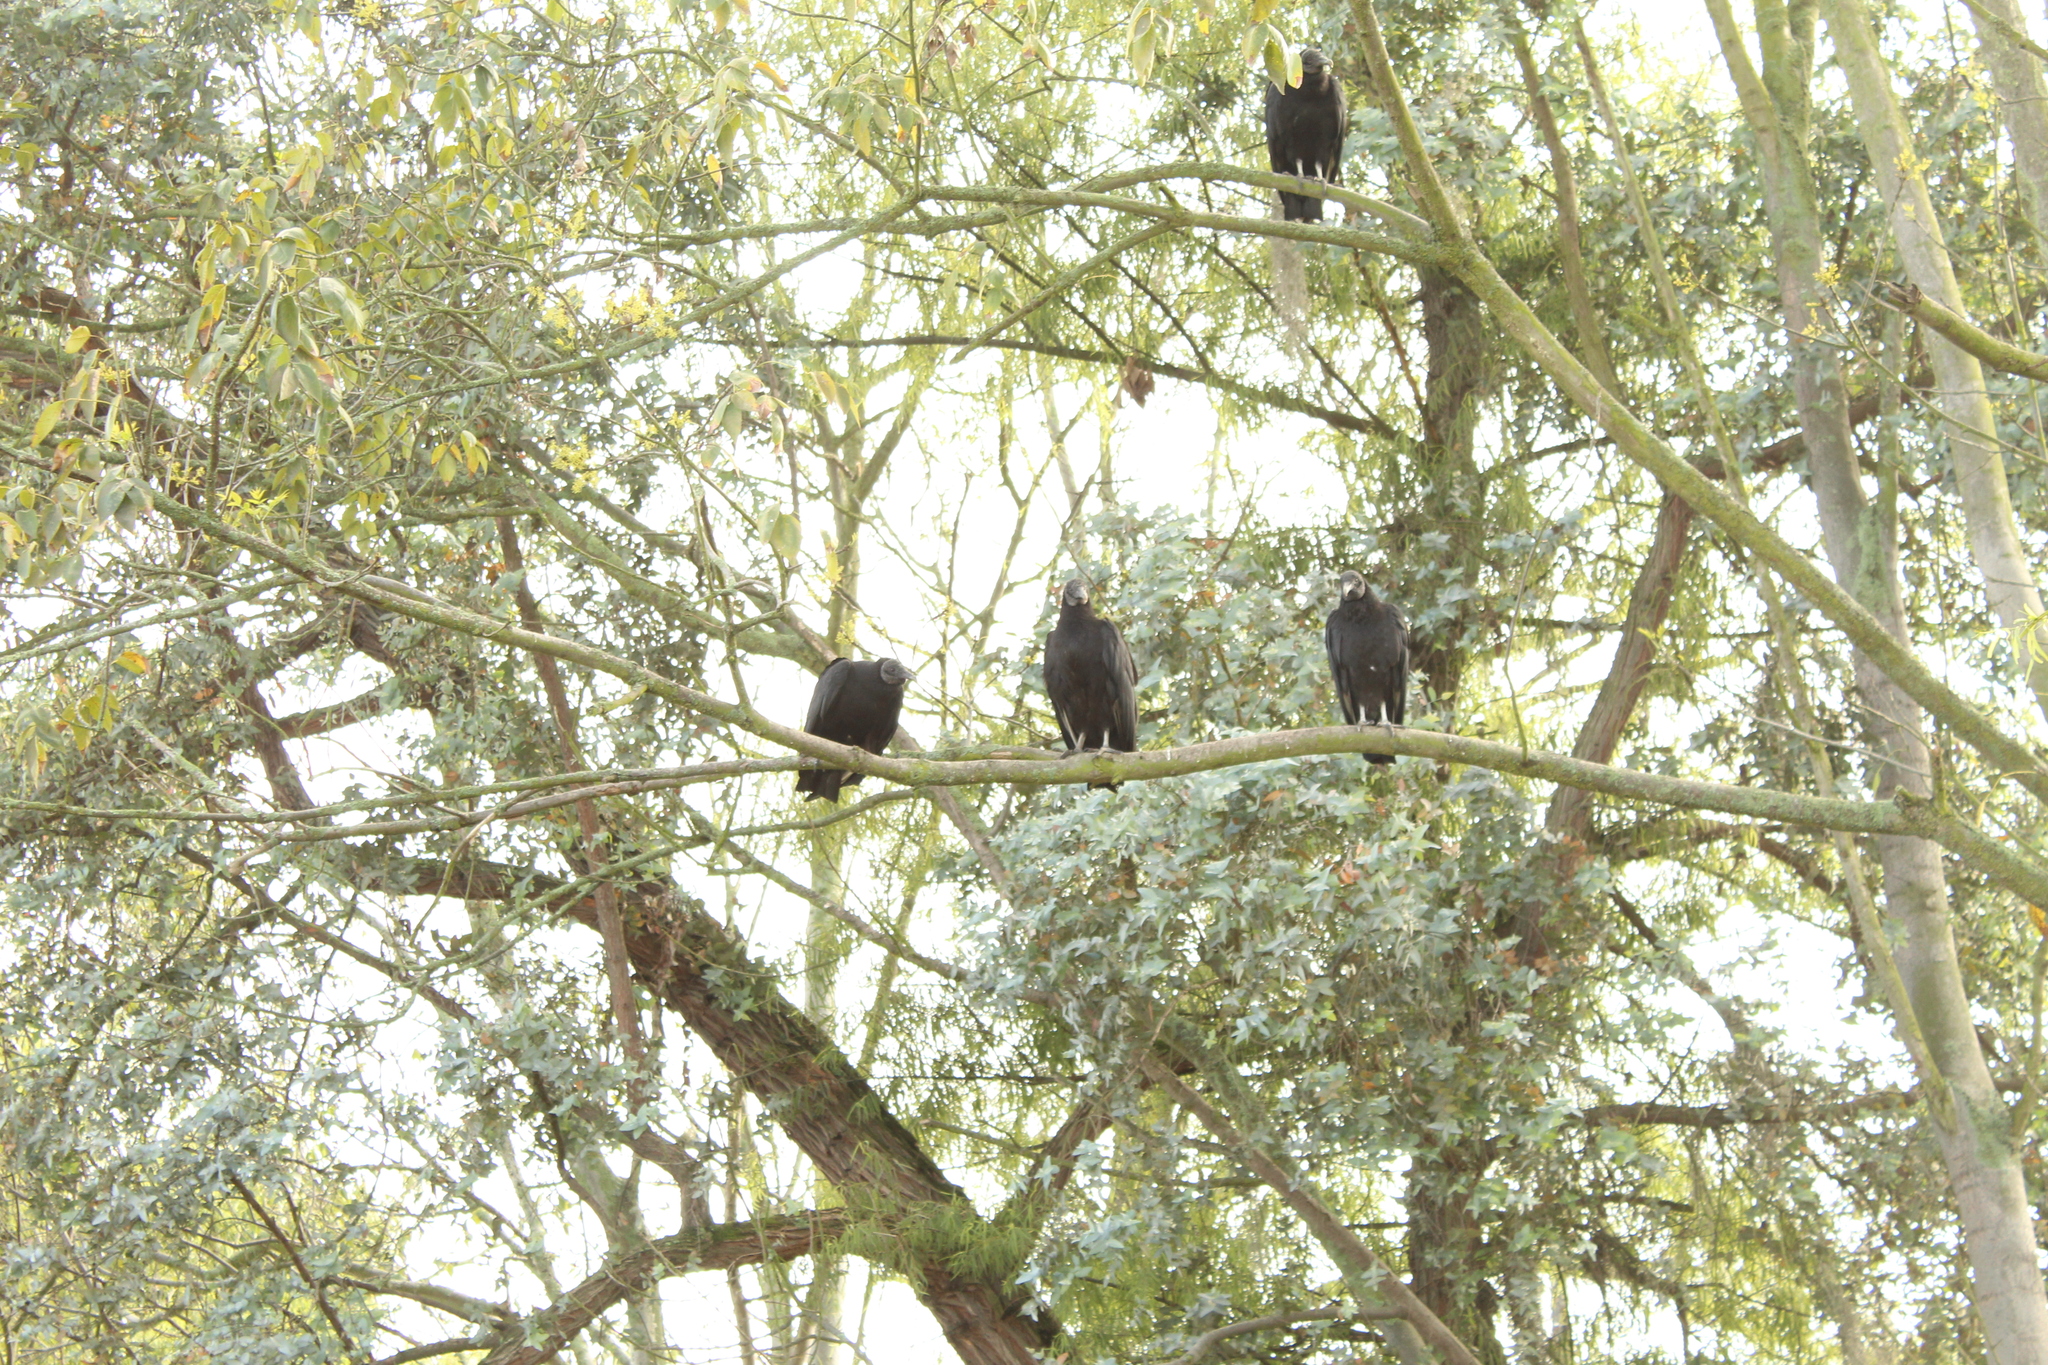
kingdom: Animalia
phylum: Chordata
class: Aves
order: Accipitriformes
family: Cathartidae
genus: Coragyps
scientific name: Coragyps atratus
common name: Black vulture
